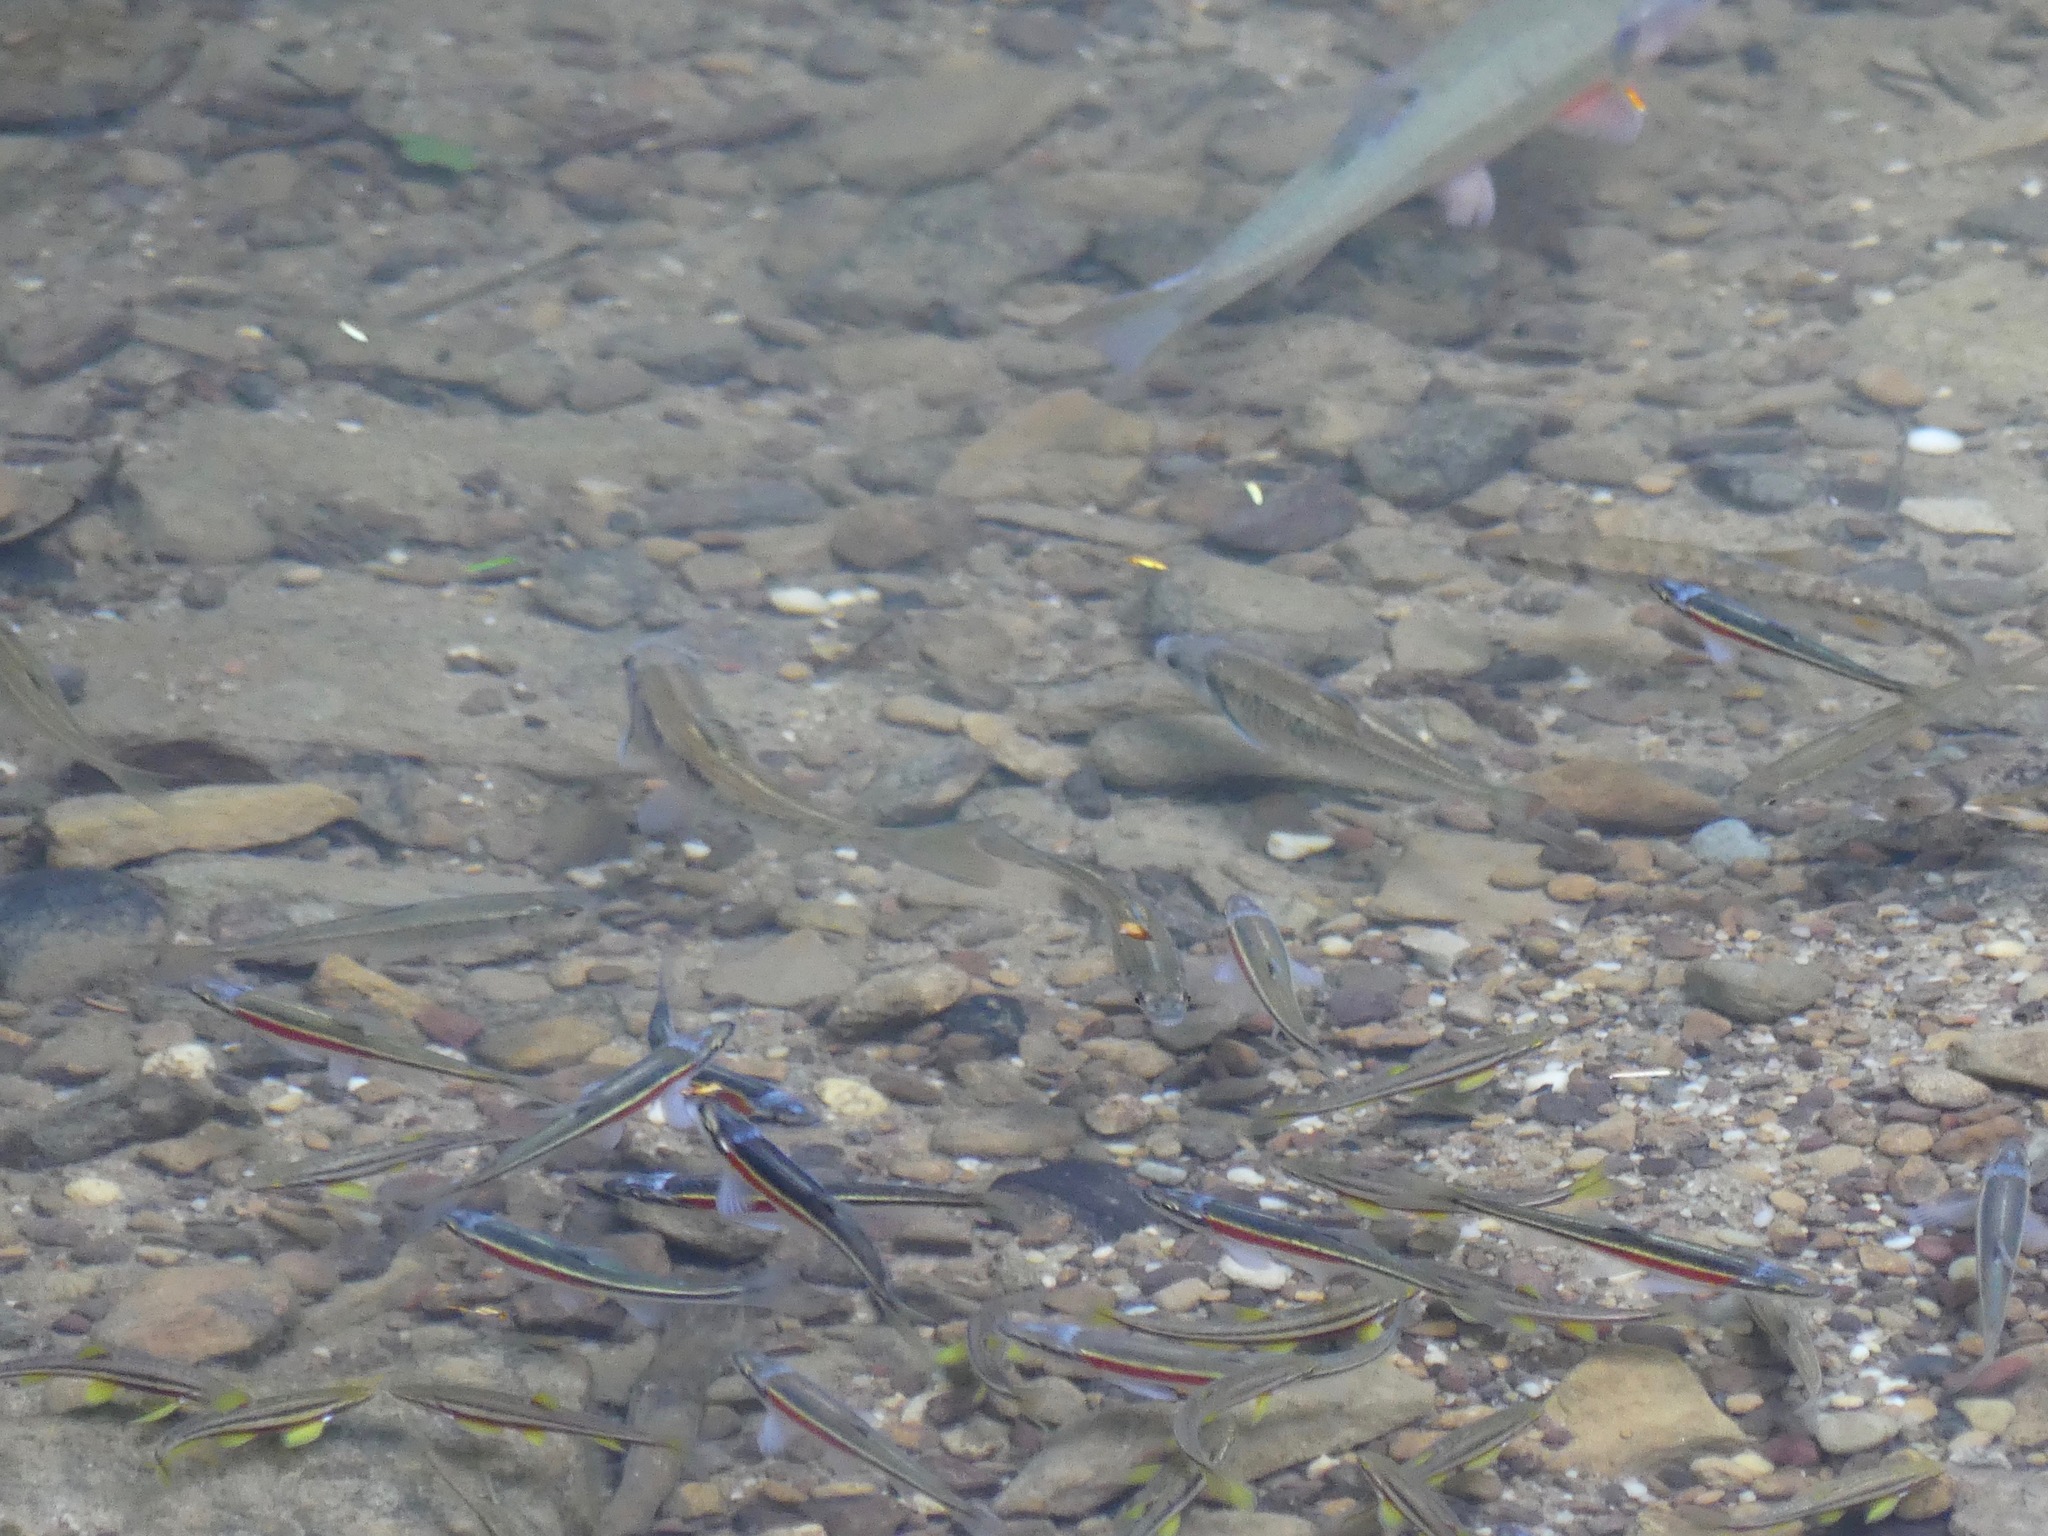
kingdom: Animalia
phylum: Chordata
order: Cypriniformes
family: Cyprinidae
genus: Luxilus
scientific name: Luxilus chrysocephalus
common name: Striped shiner
